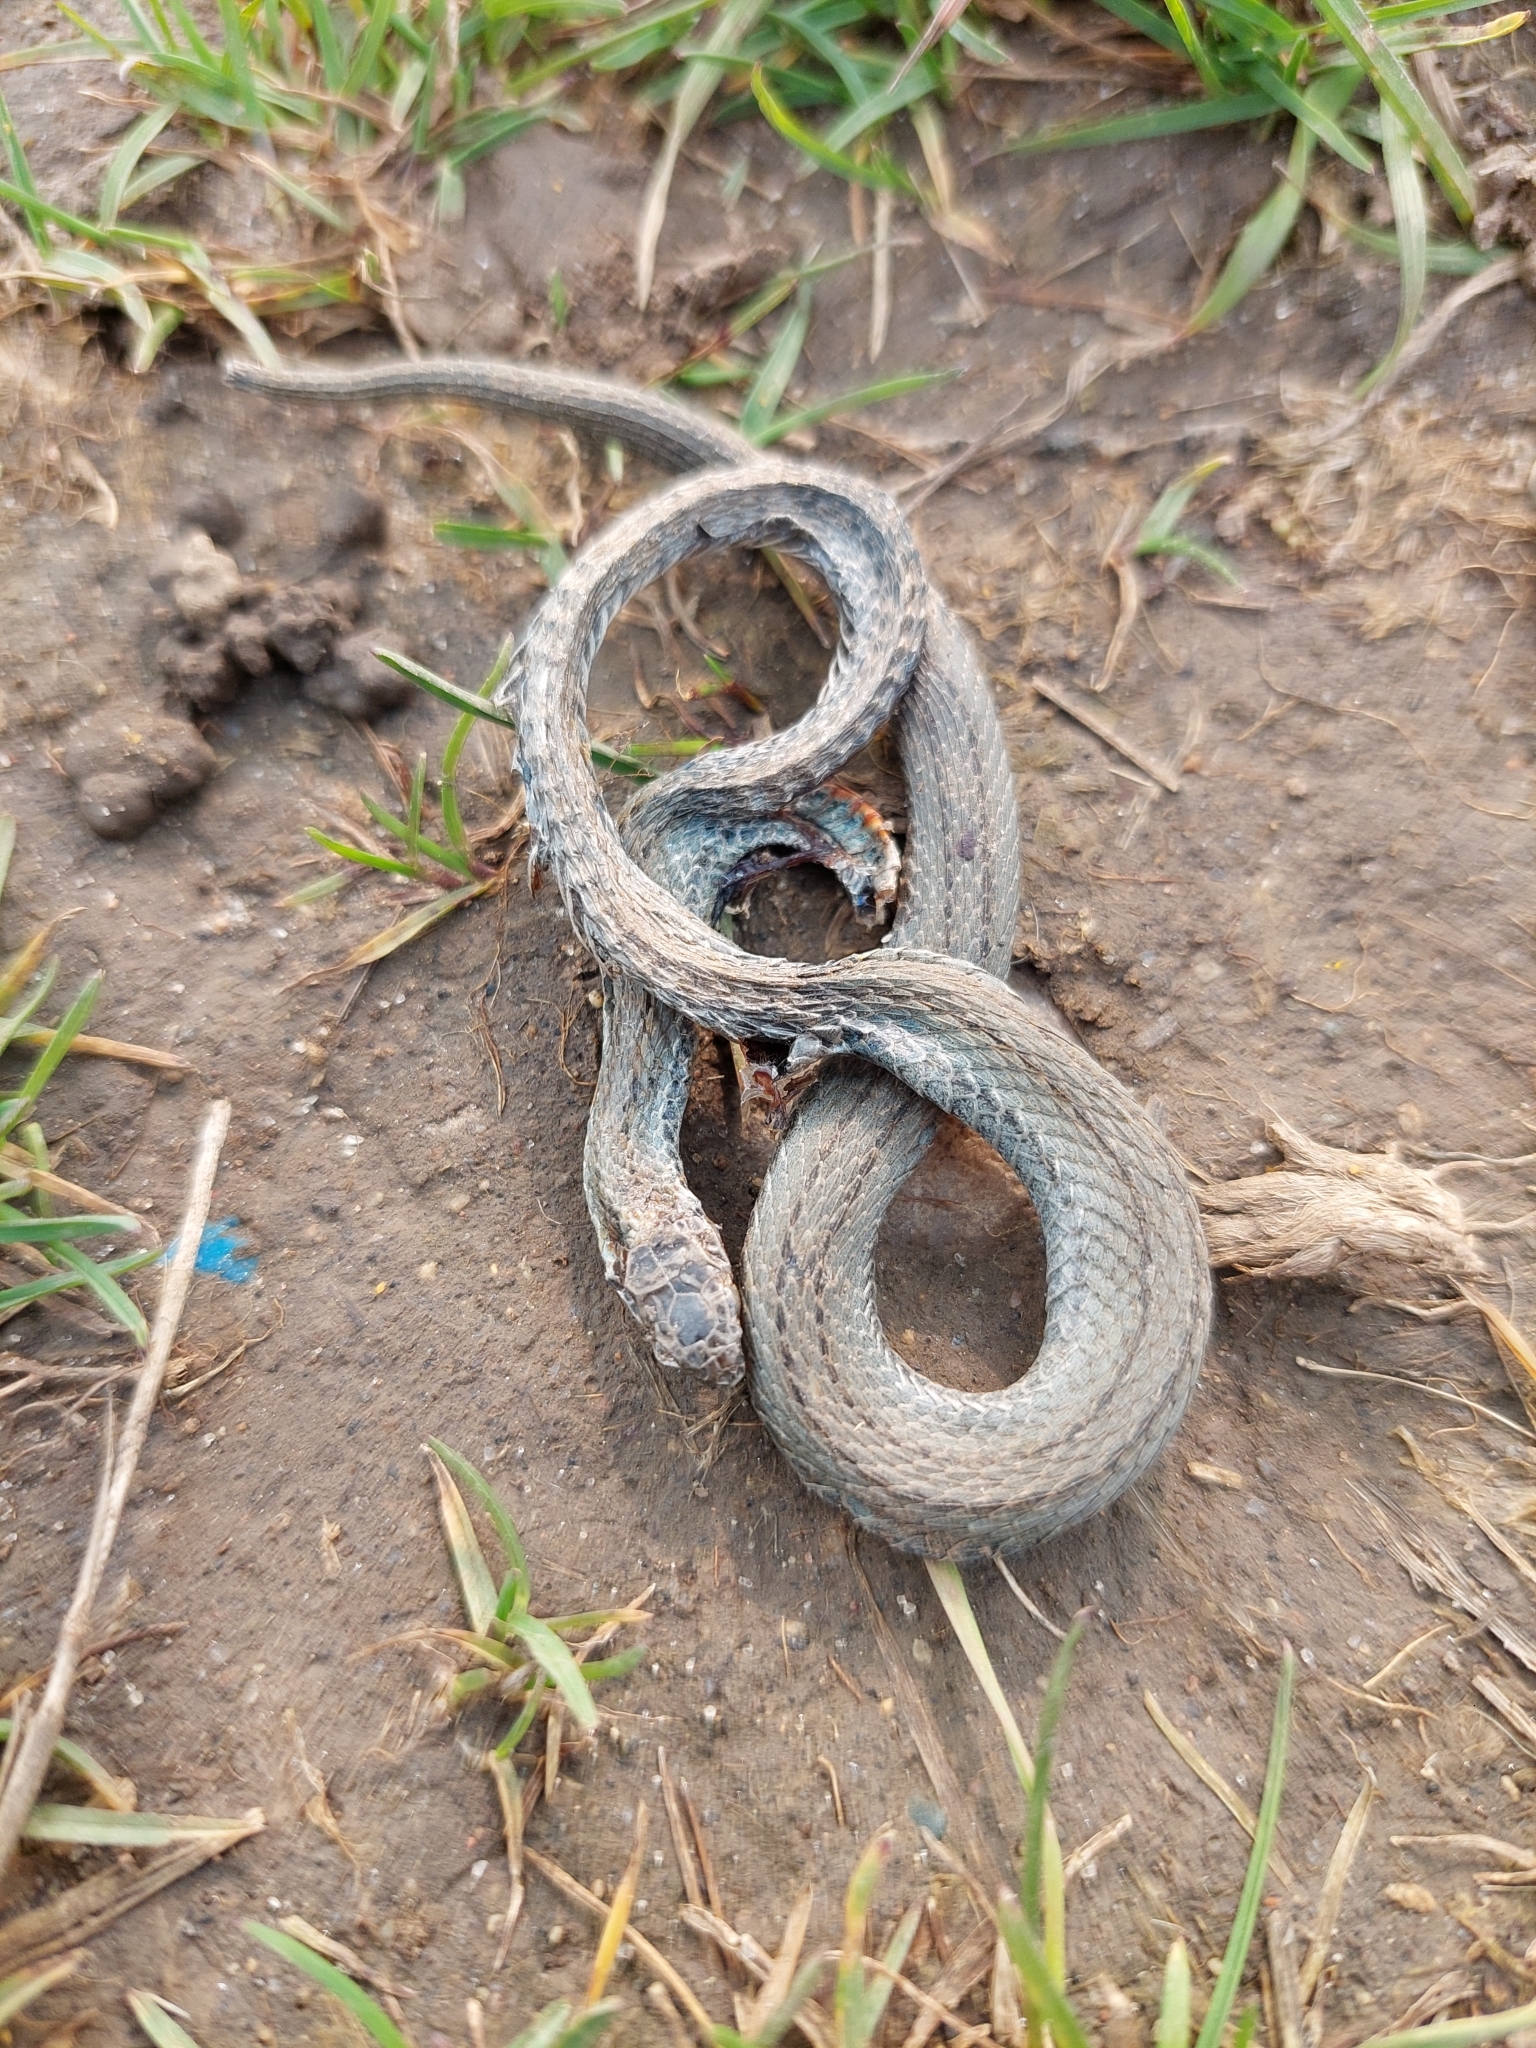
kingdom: Animalia
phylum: Chordata
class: Squamata
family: Colubridae
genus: Storeria
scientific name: Storeria occipitomaculata
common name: Redbelly snake
